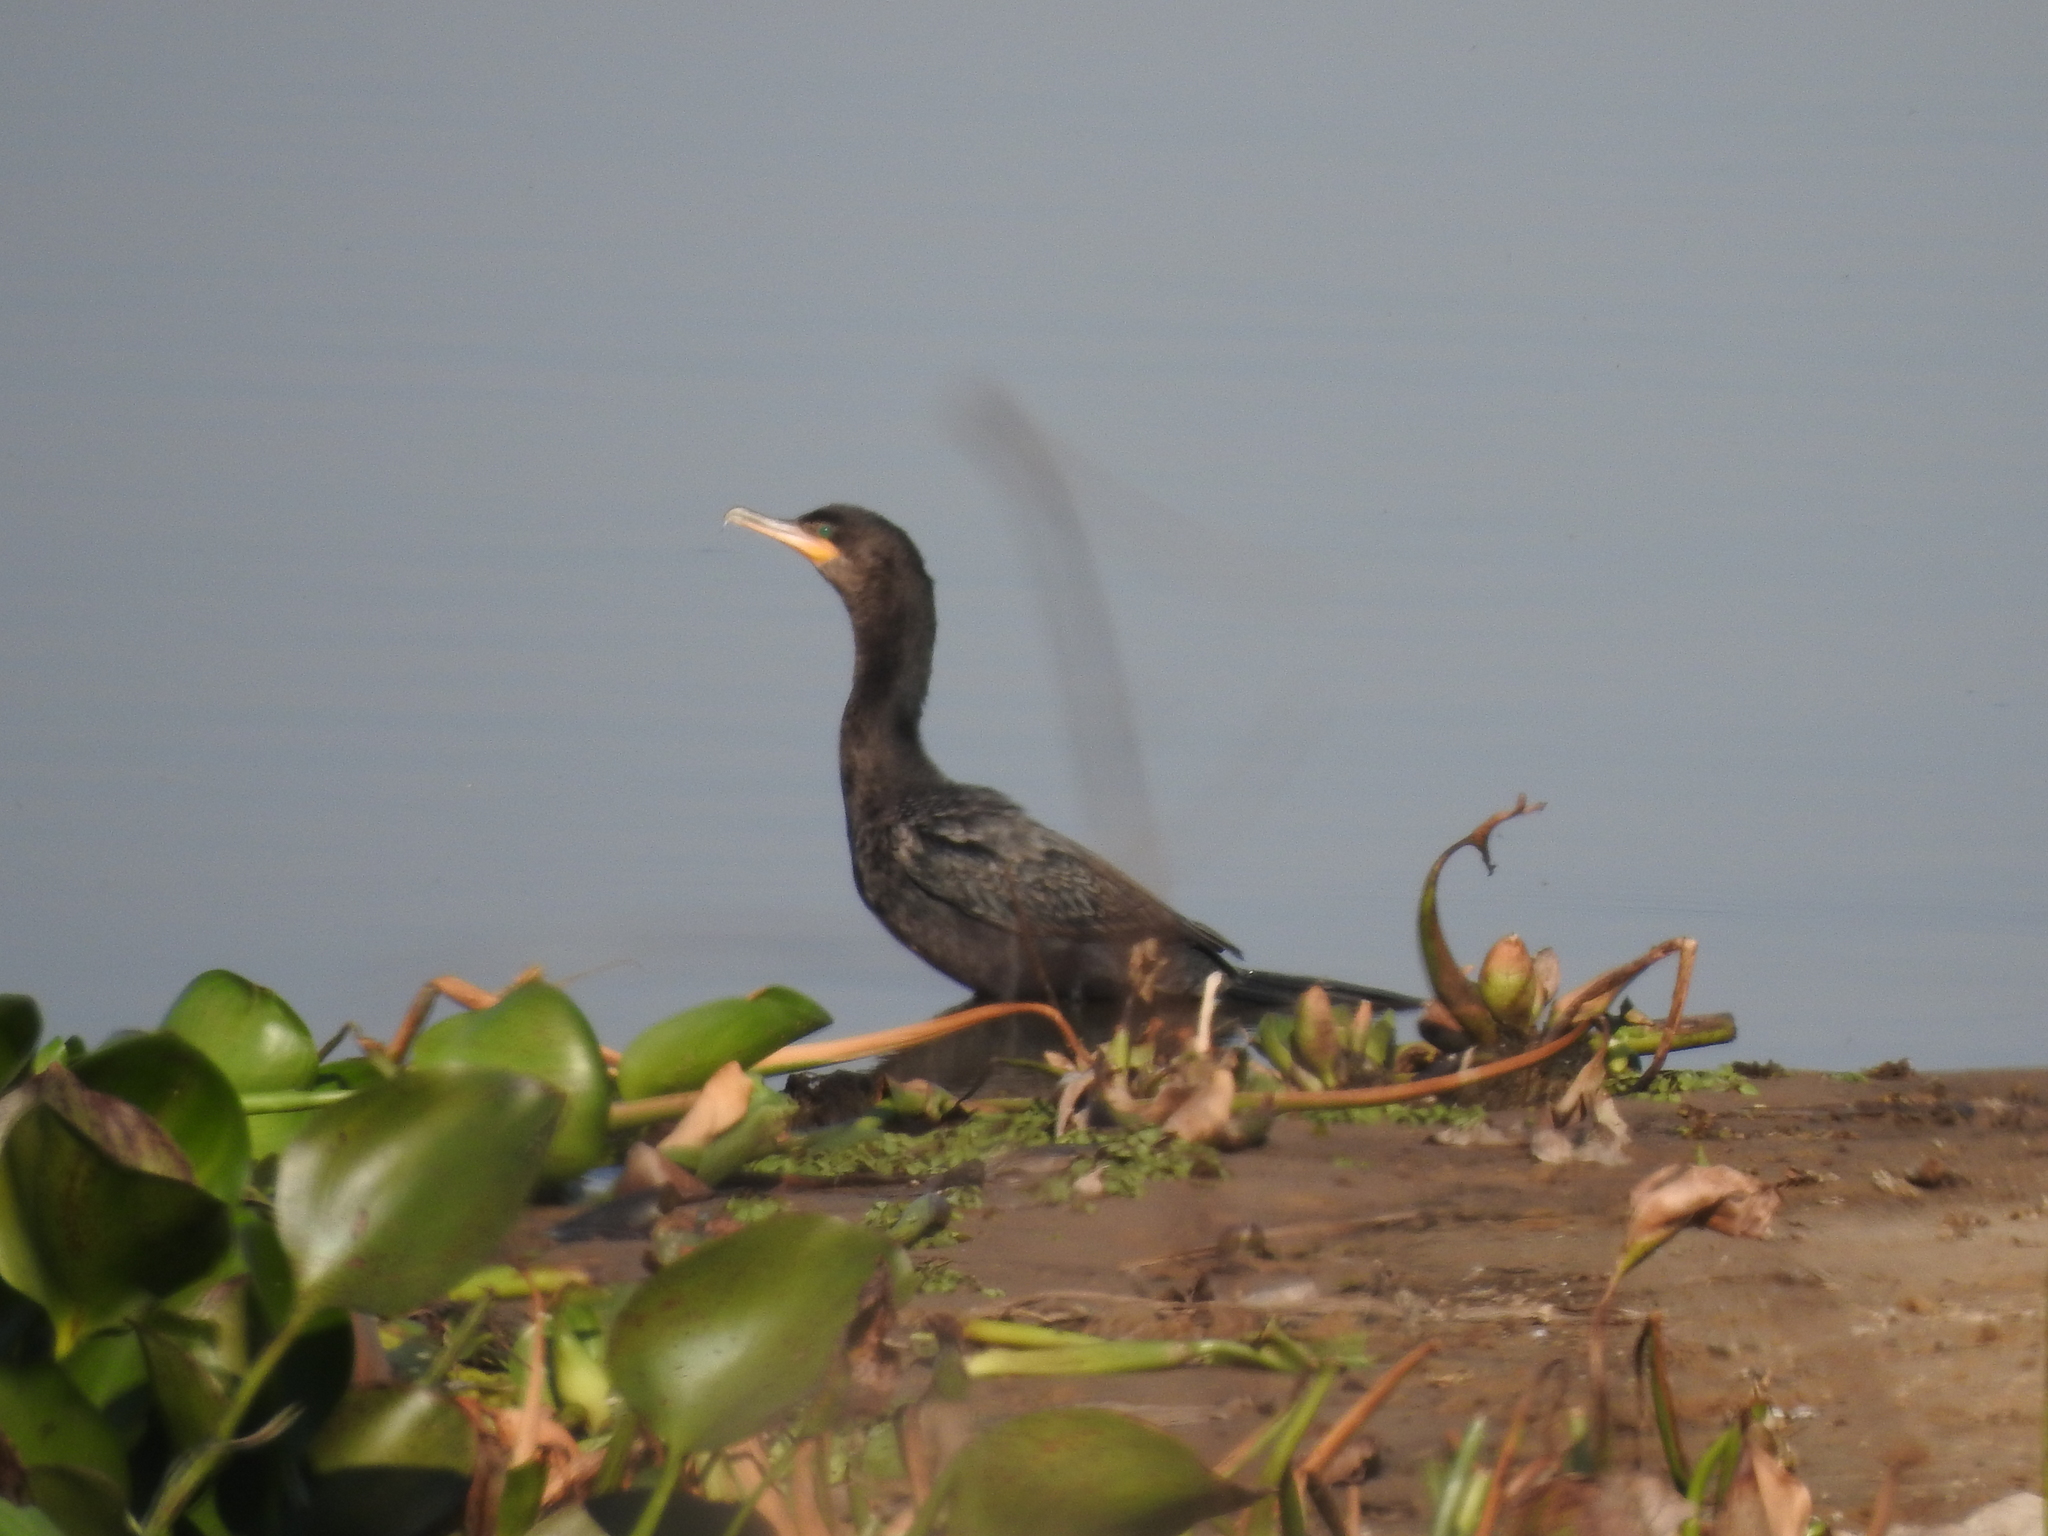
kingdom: Animalia
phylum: Chordata
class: Aves
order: Suliformes
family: Phalacrocoracidae
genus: Phalacrocorax
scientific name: Phalacrocorax brasilianus
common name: Neotropic cormorant
